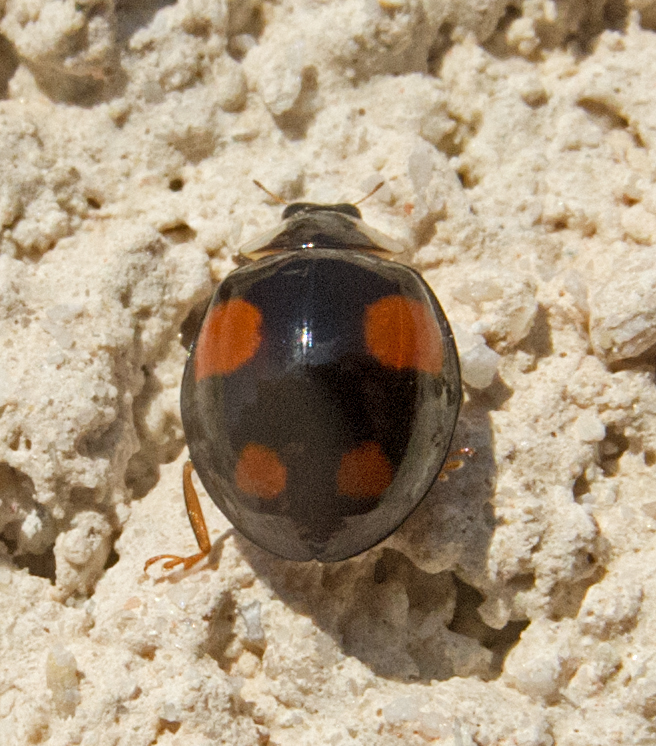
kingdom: Animalia
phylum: Arthropoda
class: Insecta
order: Coleoptera
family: Coccinellidae
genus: Harmonia
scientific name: Harmonia axyridis
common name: Harlequin ladybird
